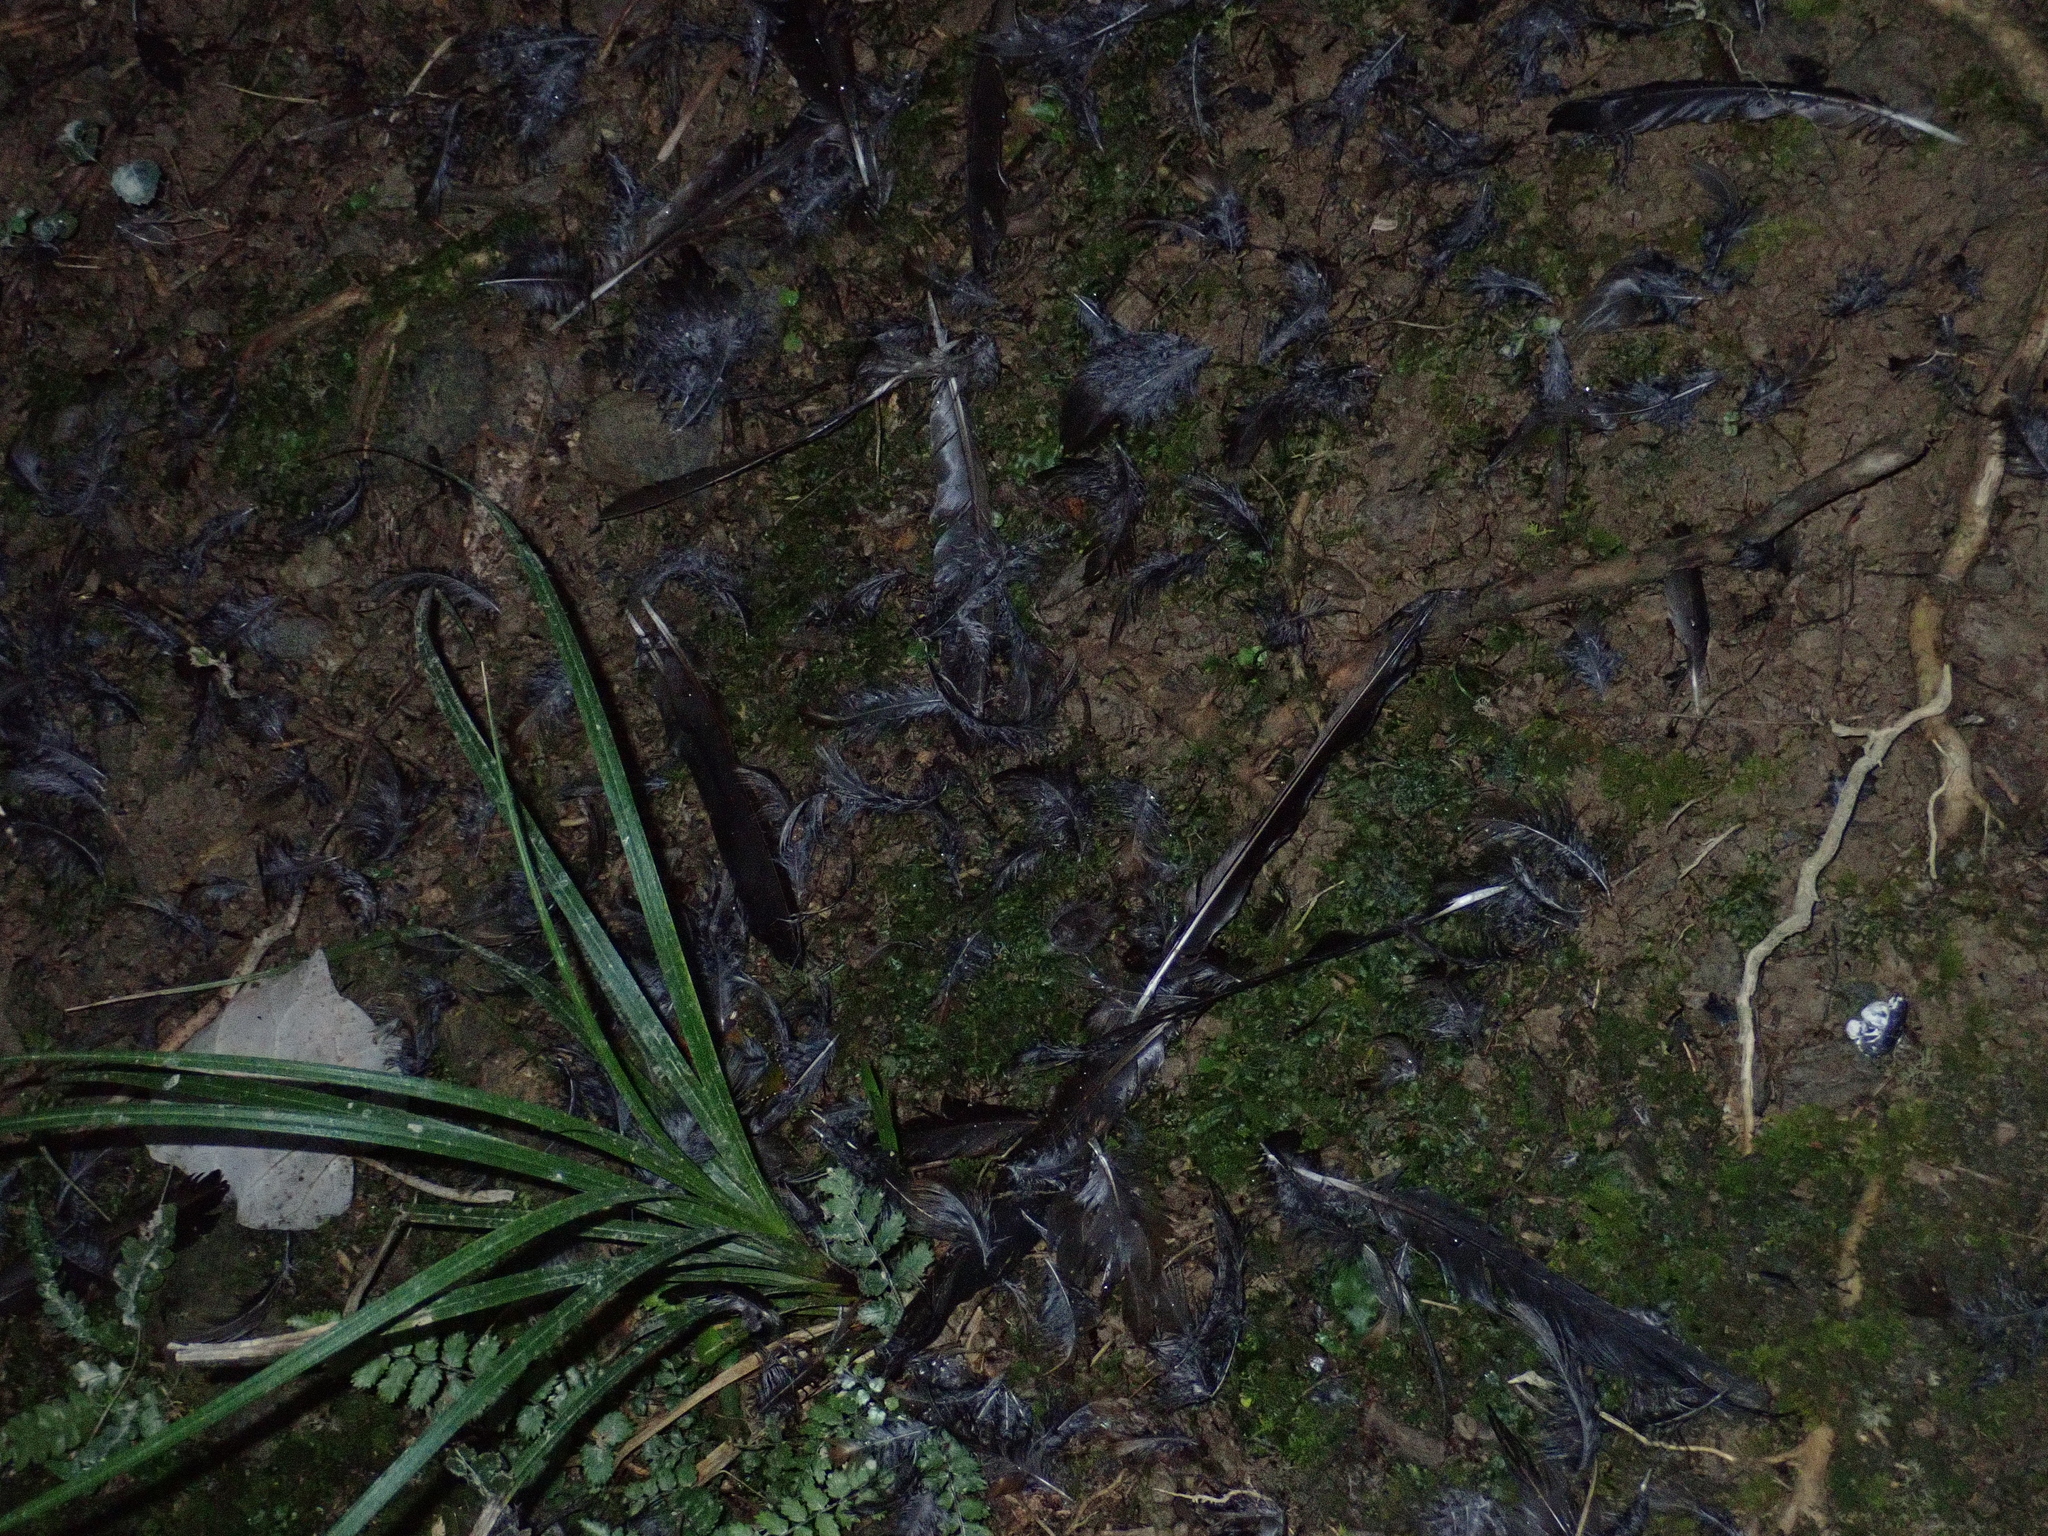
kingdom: Animalia
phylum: Chordata
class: Aves
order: Passeriformes
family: Turdidae
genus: Turdus
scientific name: Turdus merula
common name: Common blackbird
